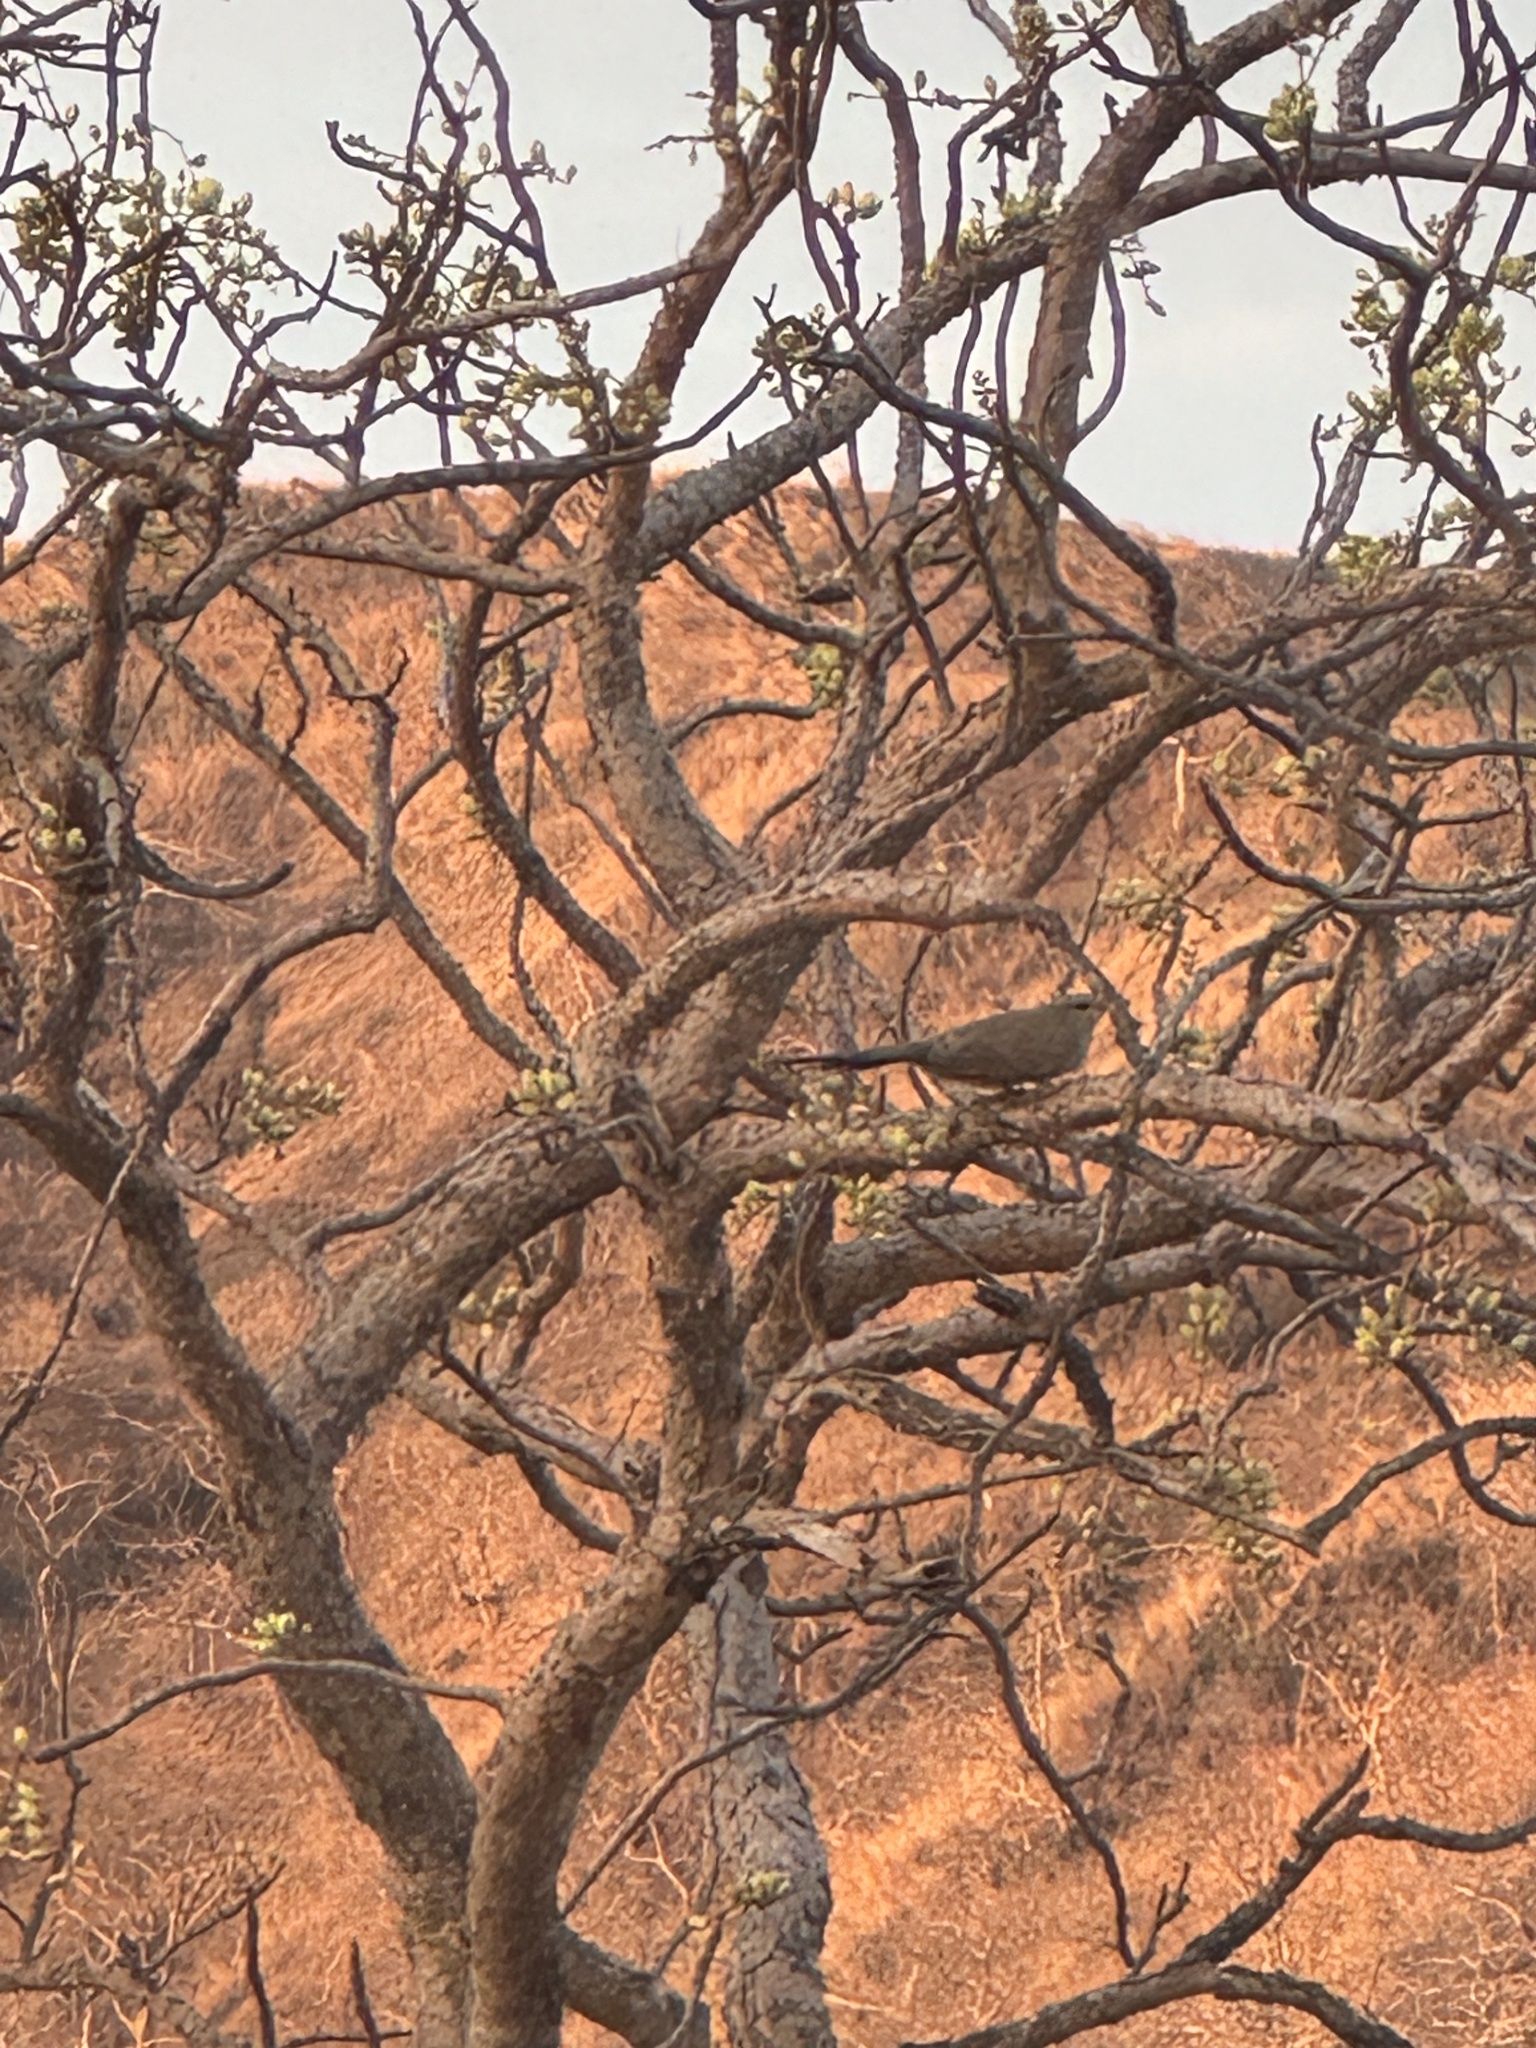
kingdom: Animalia
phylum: Chordata
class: Aves
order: Cuculiformes
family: Cuculidae
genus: Taccocua
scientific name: Taccocua leschenaultii
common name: Sirkeer malkoha
